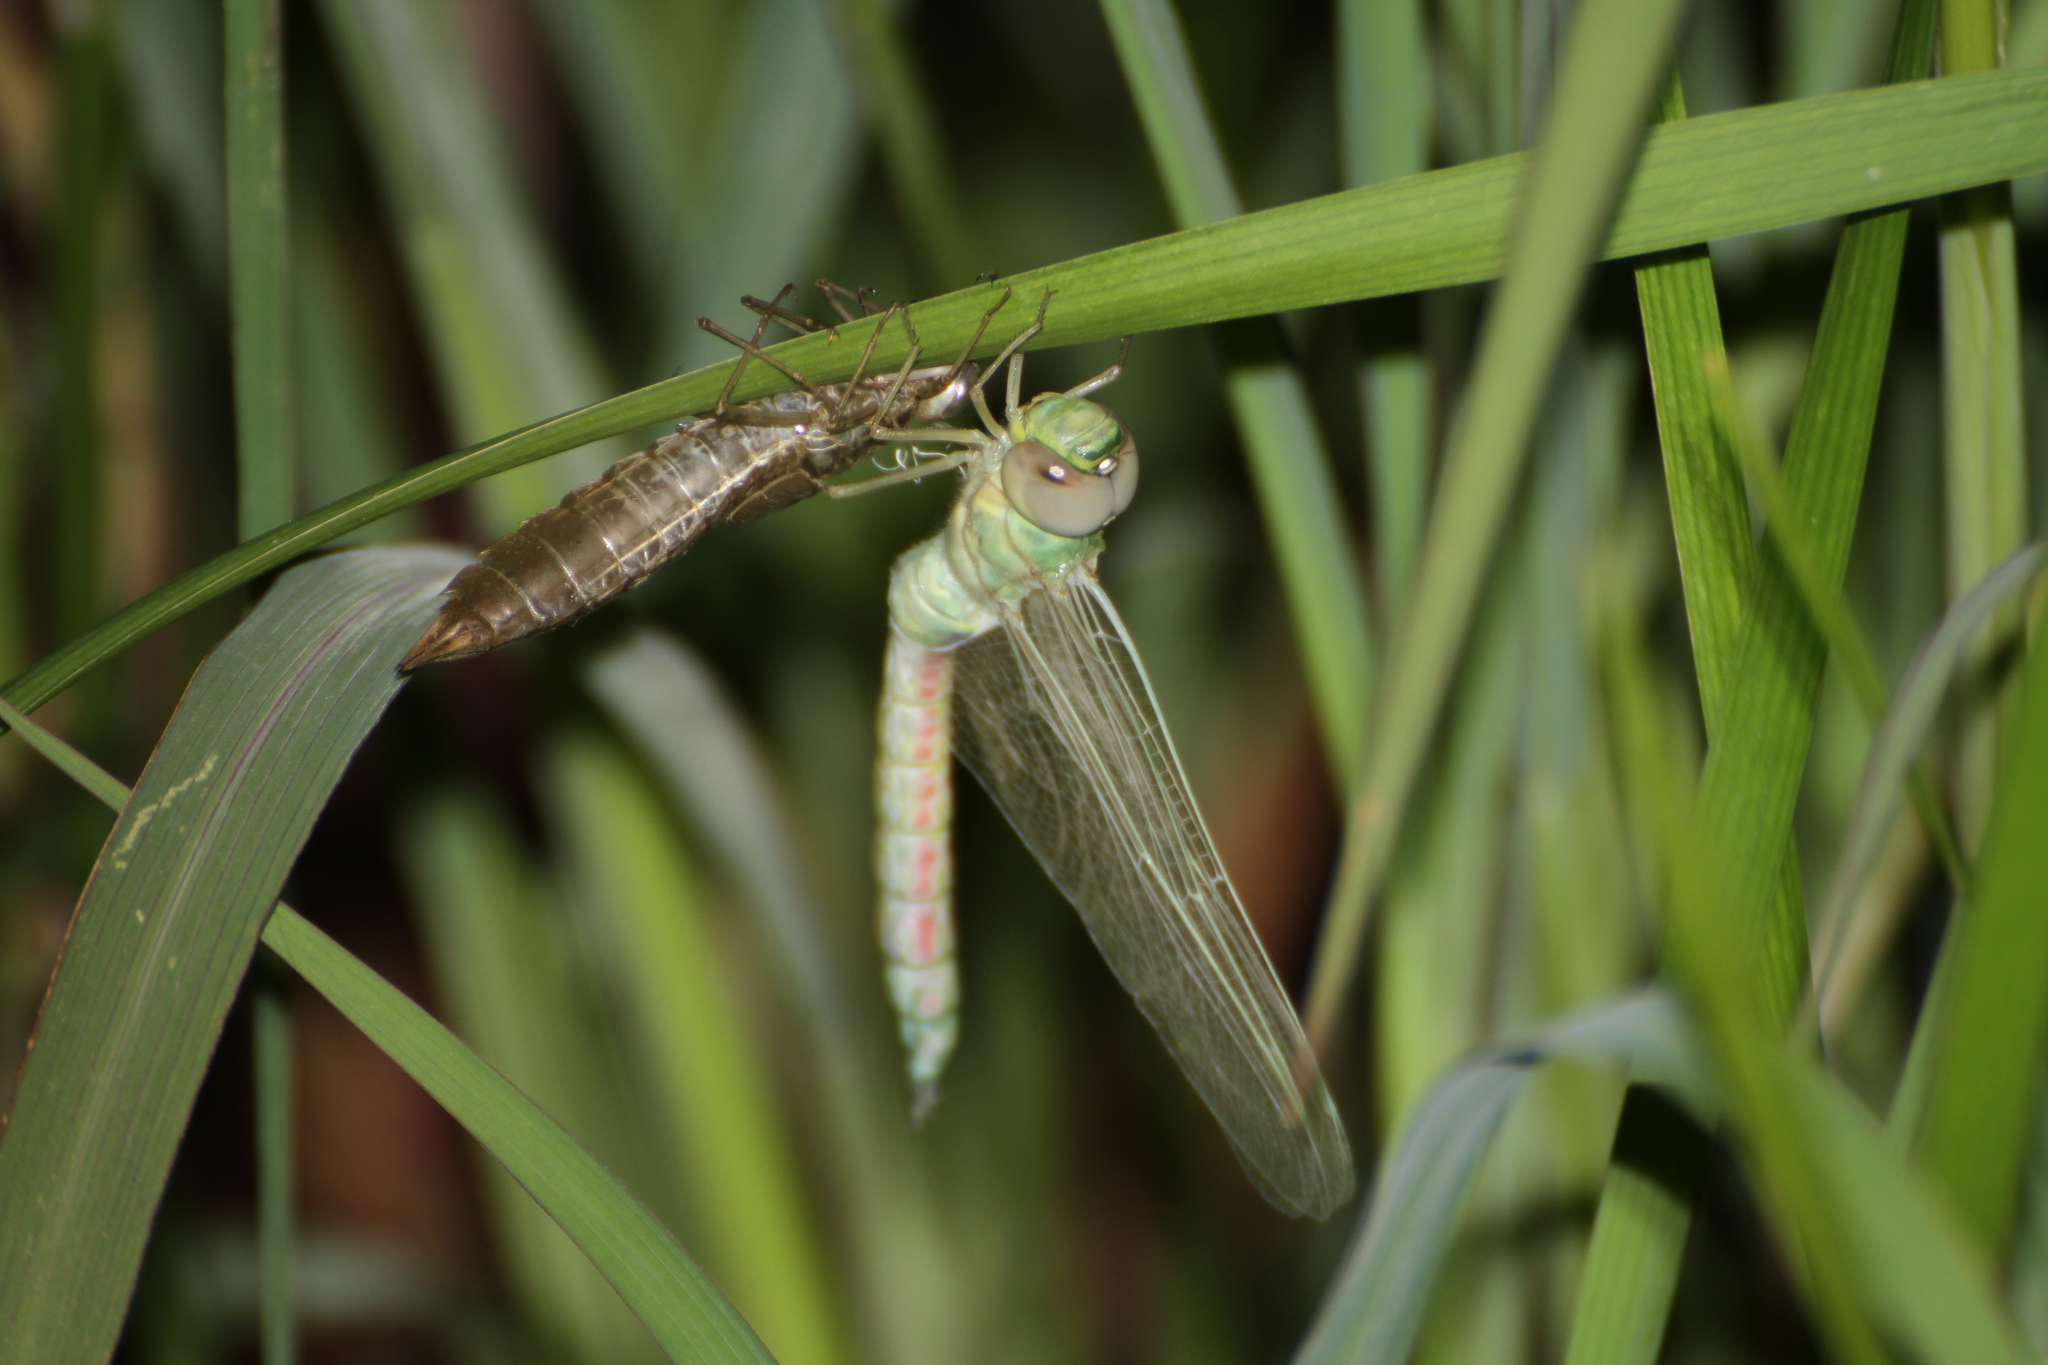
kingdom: Animalia
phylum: Arthropoda
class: Insecta
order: Odonata
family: Aeshnidae
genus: Anax
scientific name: Anax imperator
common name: Emperor dragonfly
